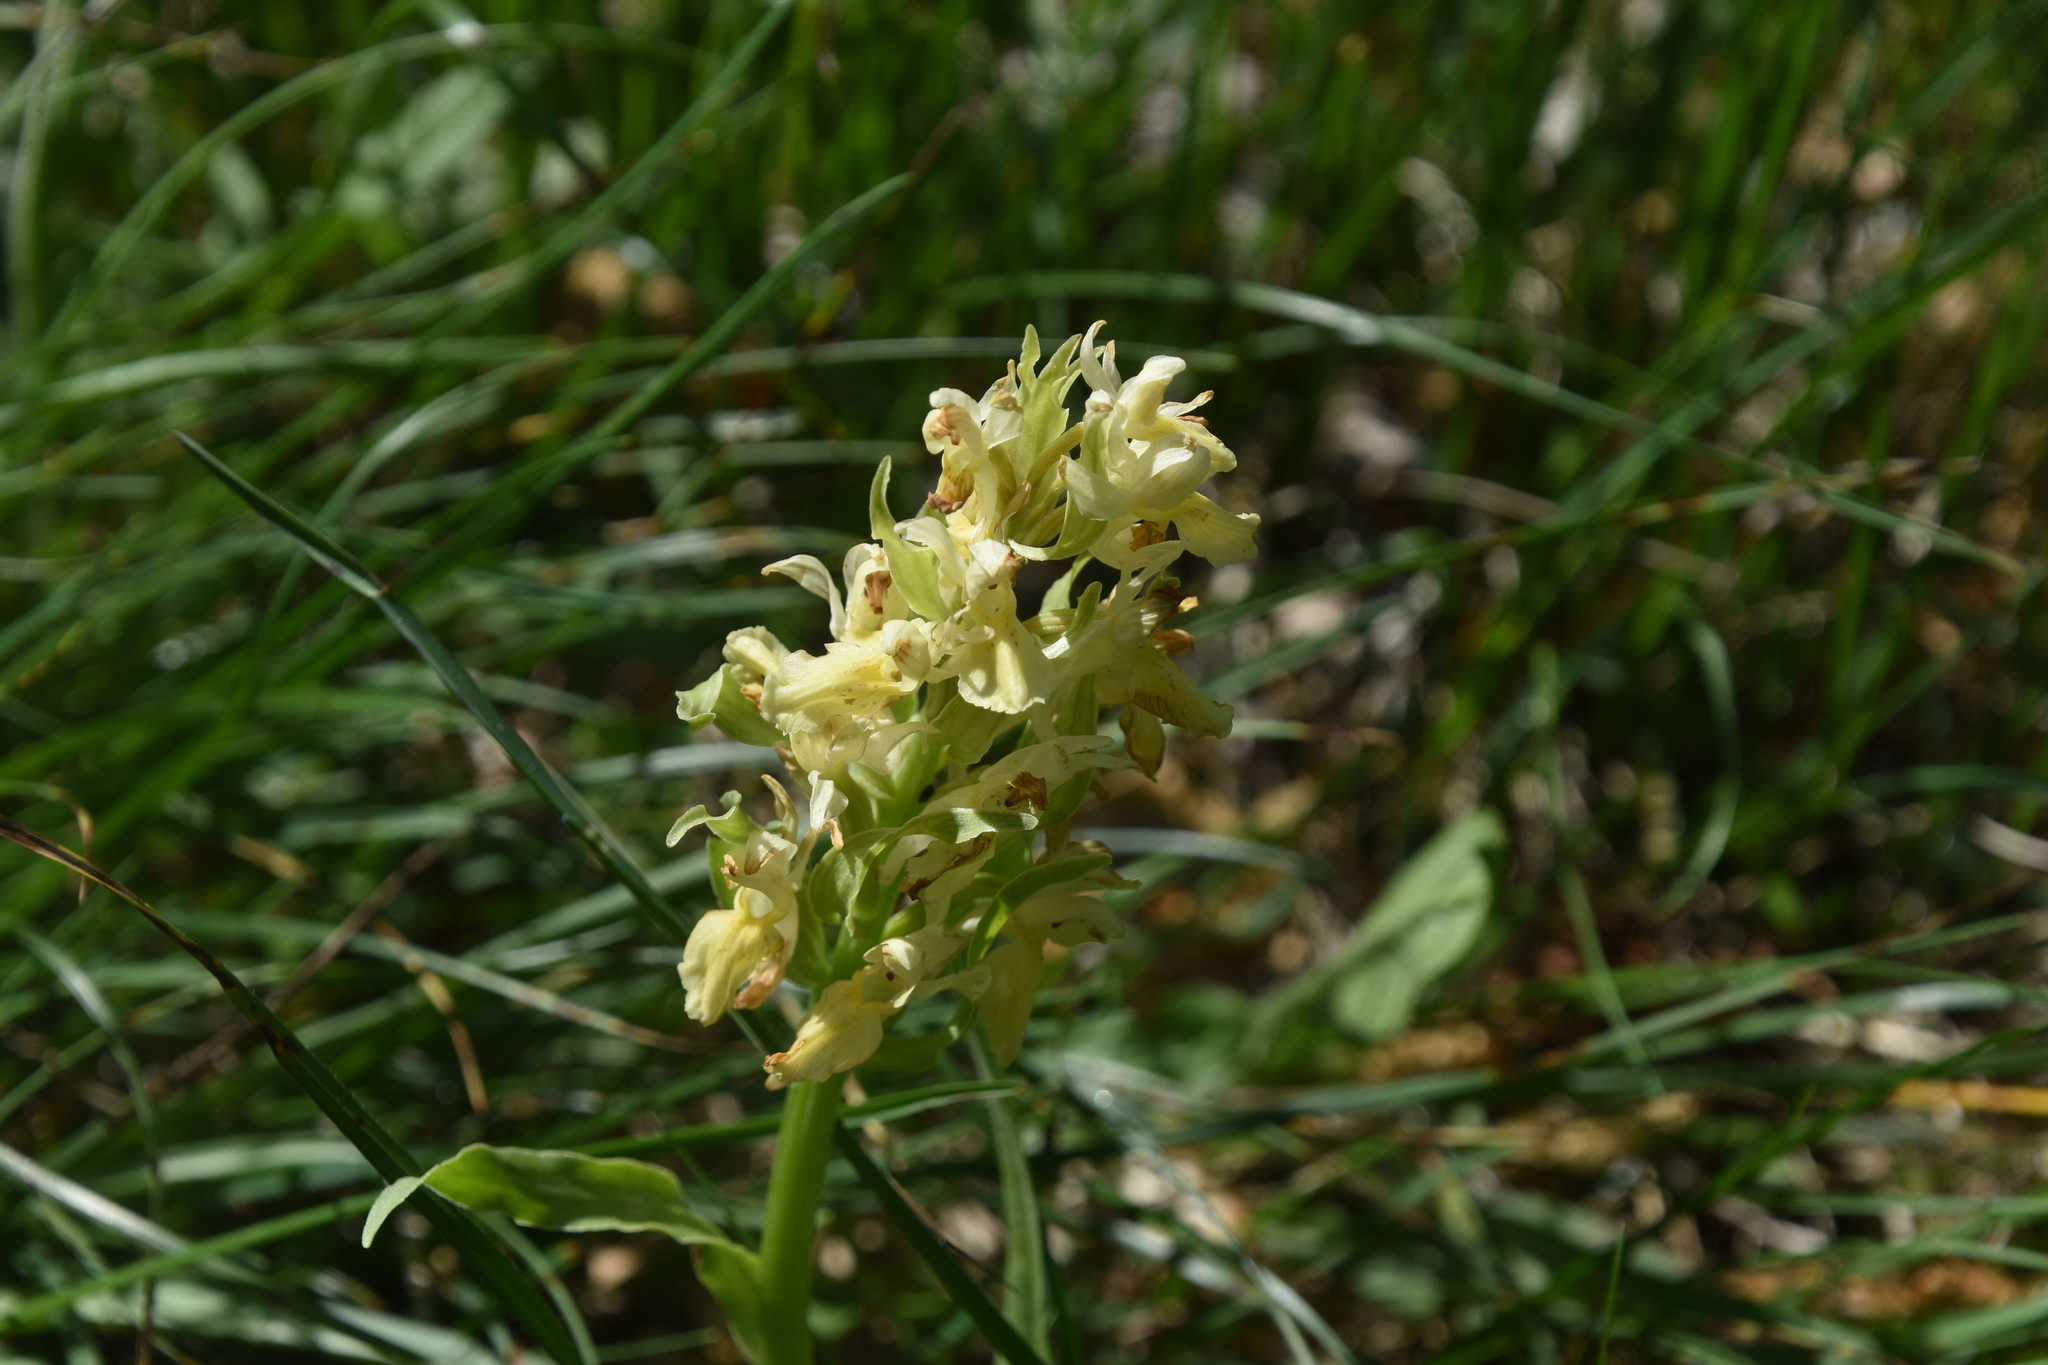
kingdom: Plantae
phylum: Tracheophyta
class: Liliopsida
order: Asparagales
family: Orchidaceae
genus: Dactylorhiza
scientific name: Dactylorhiza sambucina
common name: Elder-flowered orchid
